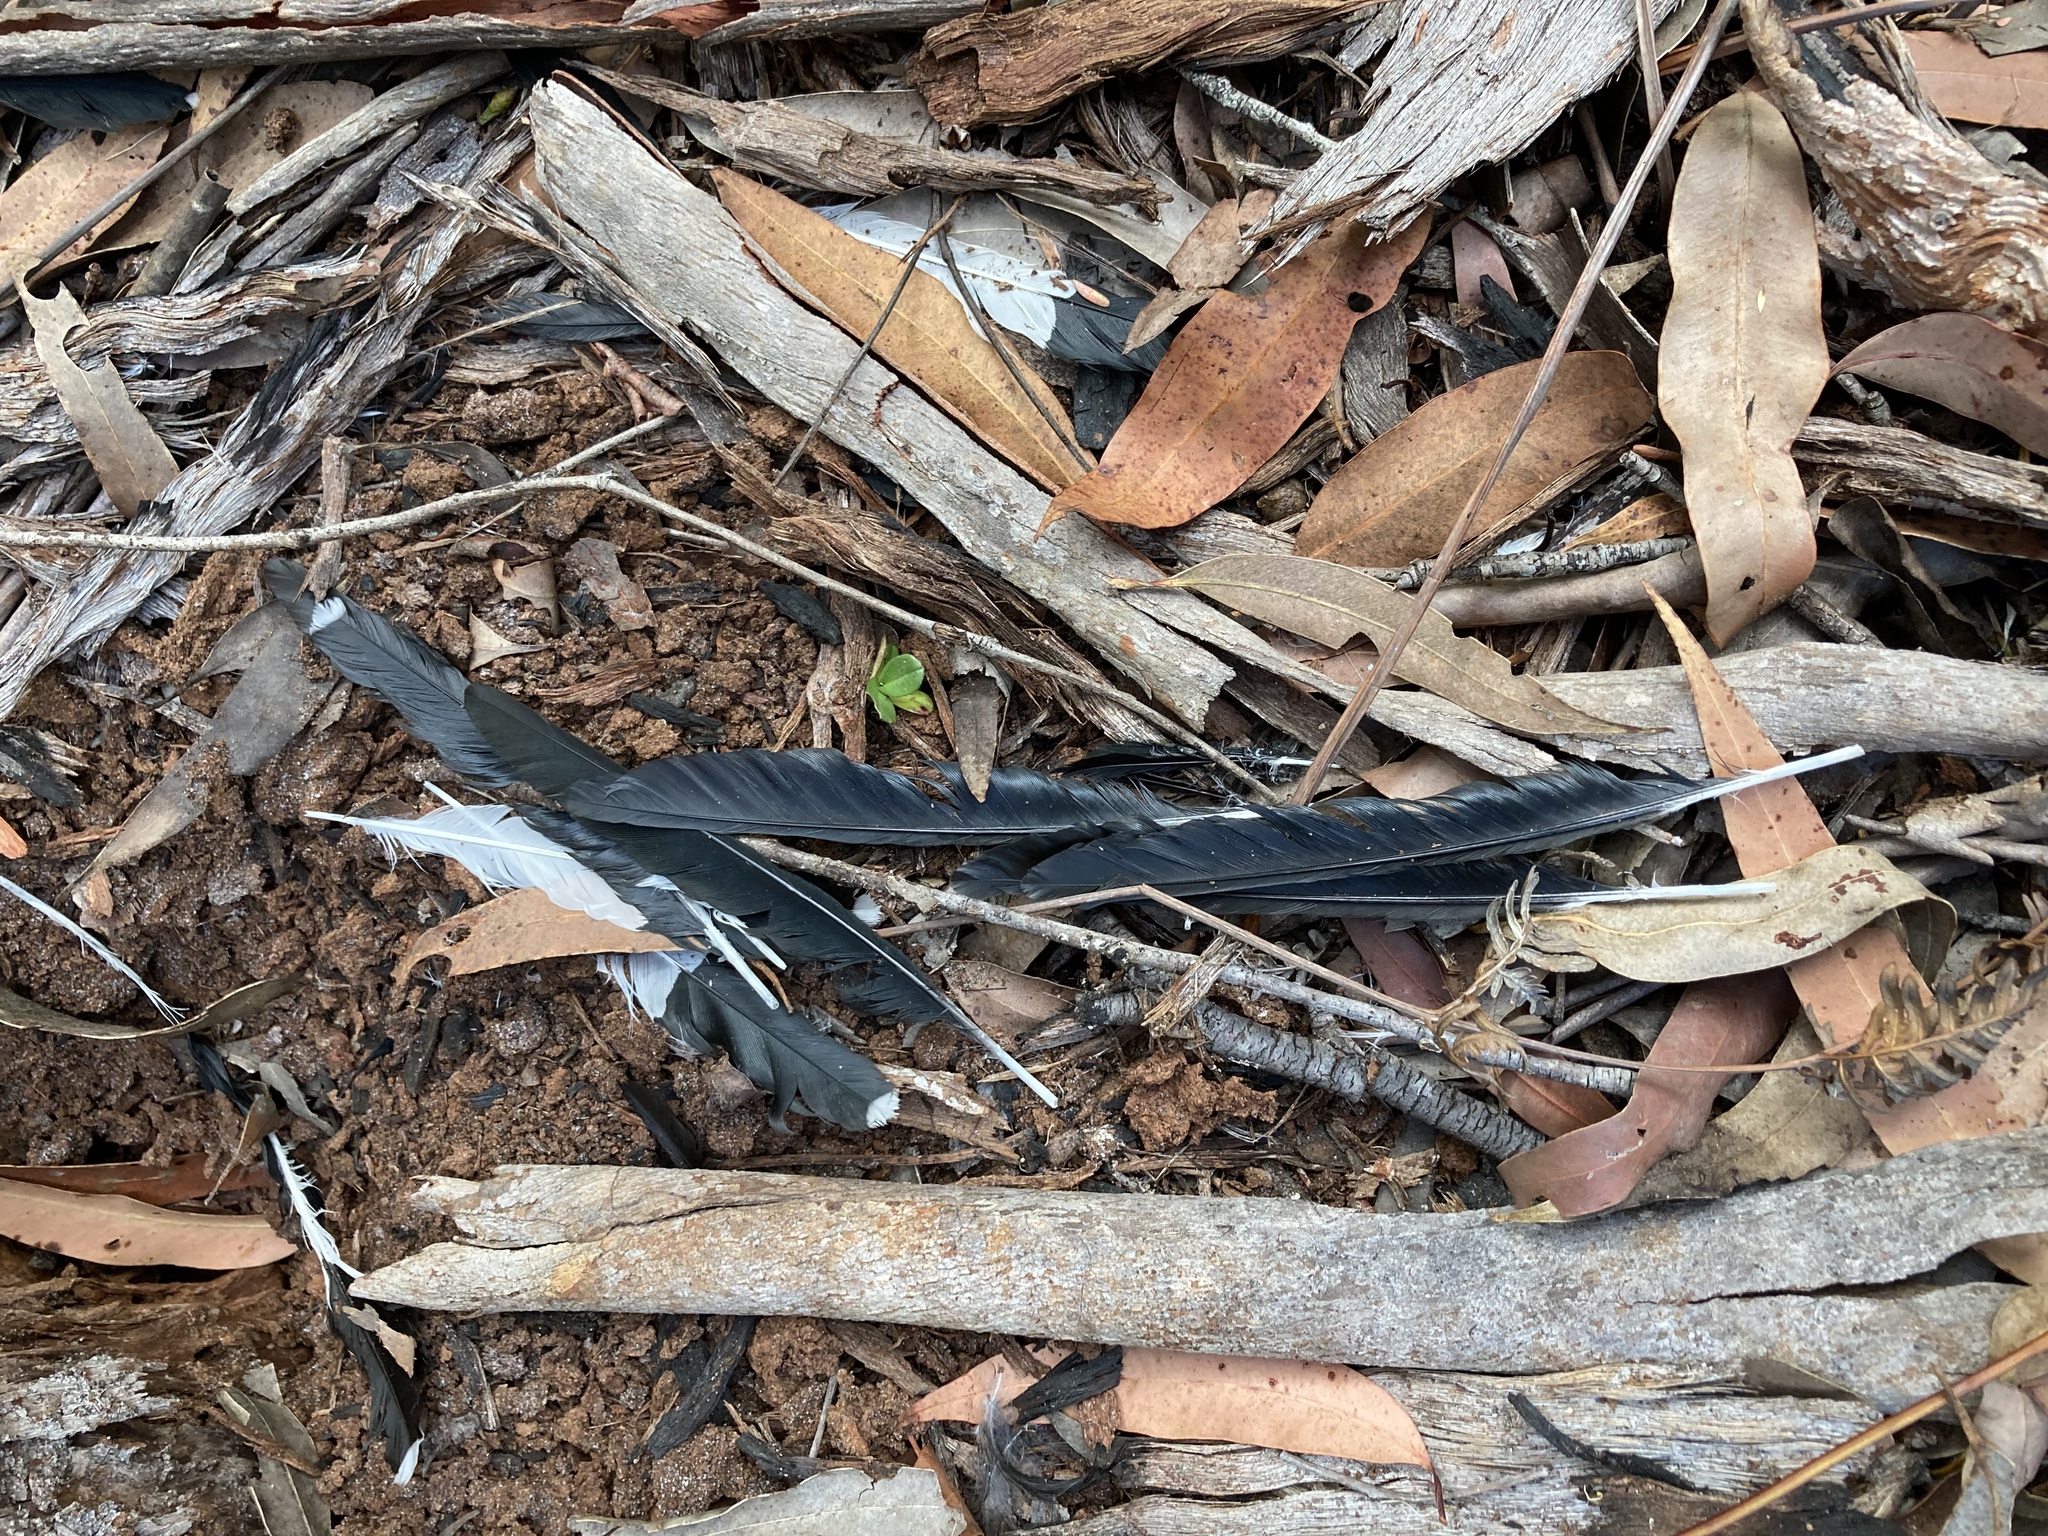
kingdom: Animalia
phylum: Chordata
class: Aves
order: Passeriformes
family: Monarchidae
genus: Grallina
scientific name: Grallina cyanoleuca
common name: Magpie-lark
